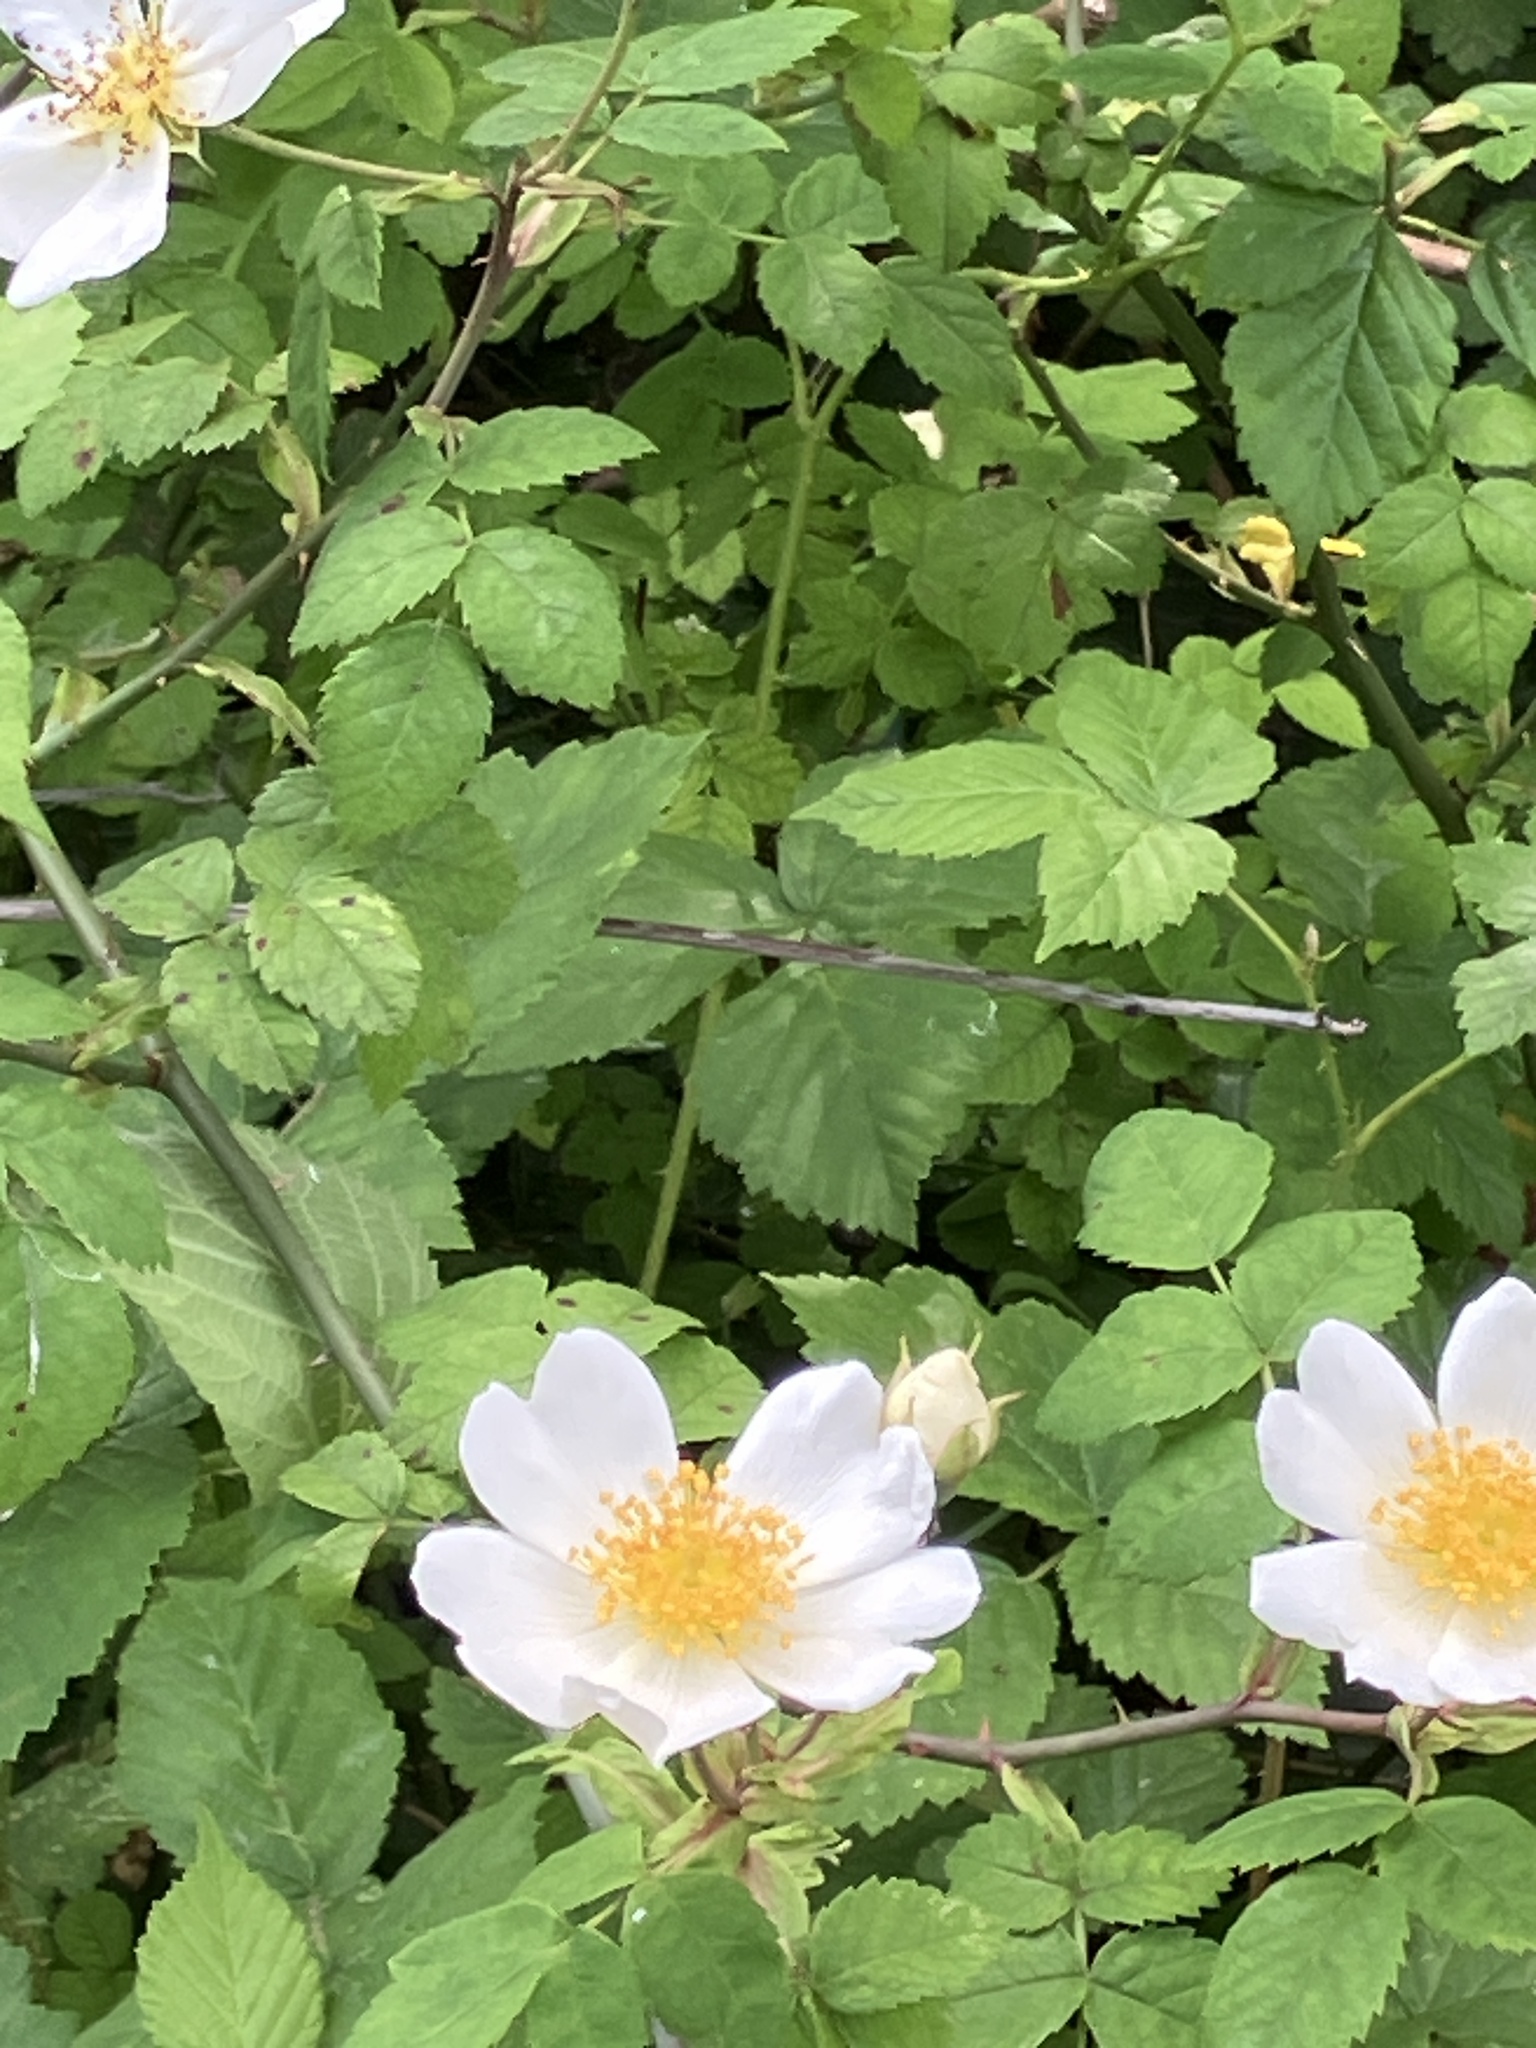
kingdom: Plantae
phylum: Tracheophyta
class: Magnoliopsida
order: Rosales
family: Rosaceae
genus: Rosa
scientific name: Rosa arvensis
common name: Field rose
